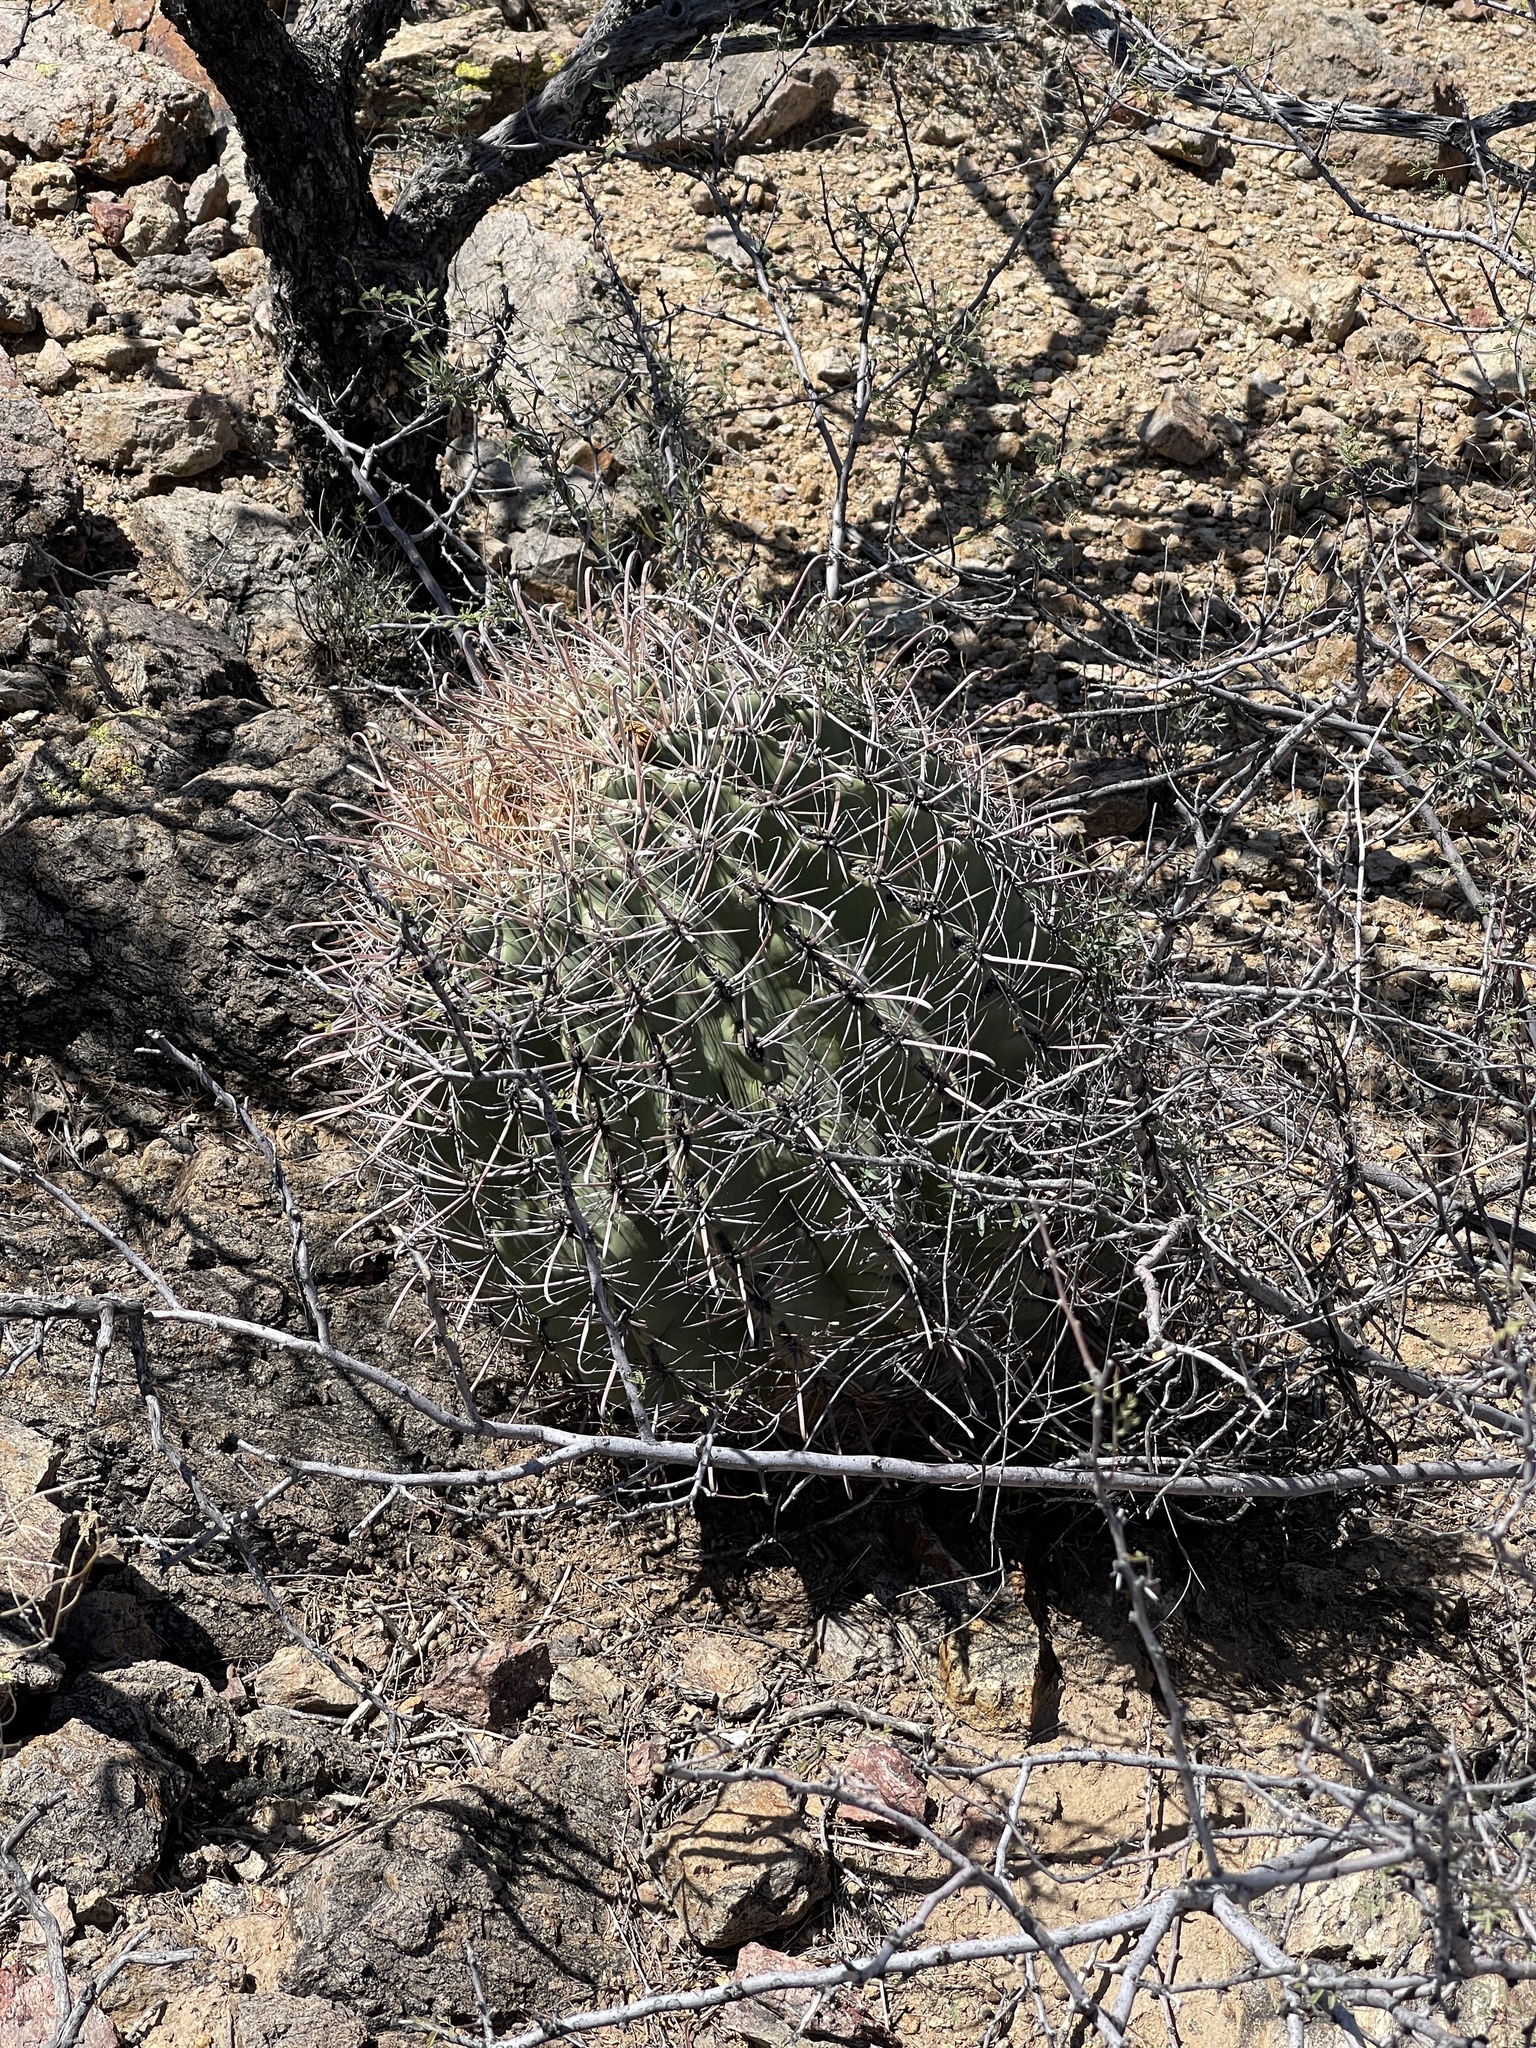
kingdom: Plantae
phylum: Tracheophyta
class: Magnoliopsida
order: Caryophyllales
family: Cactaceae
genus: Ferocactus
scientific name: Ferocactus wislizeni
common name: Candy barrel cactus
